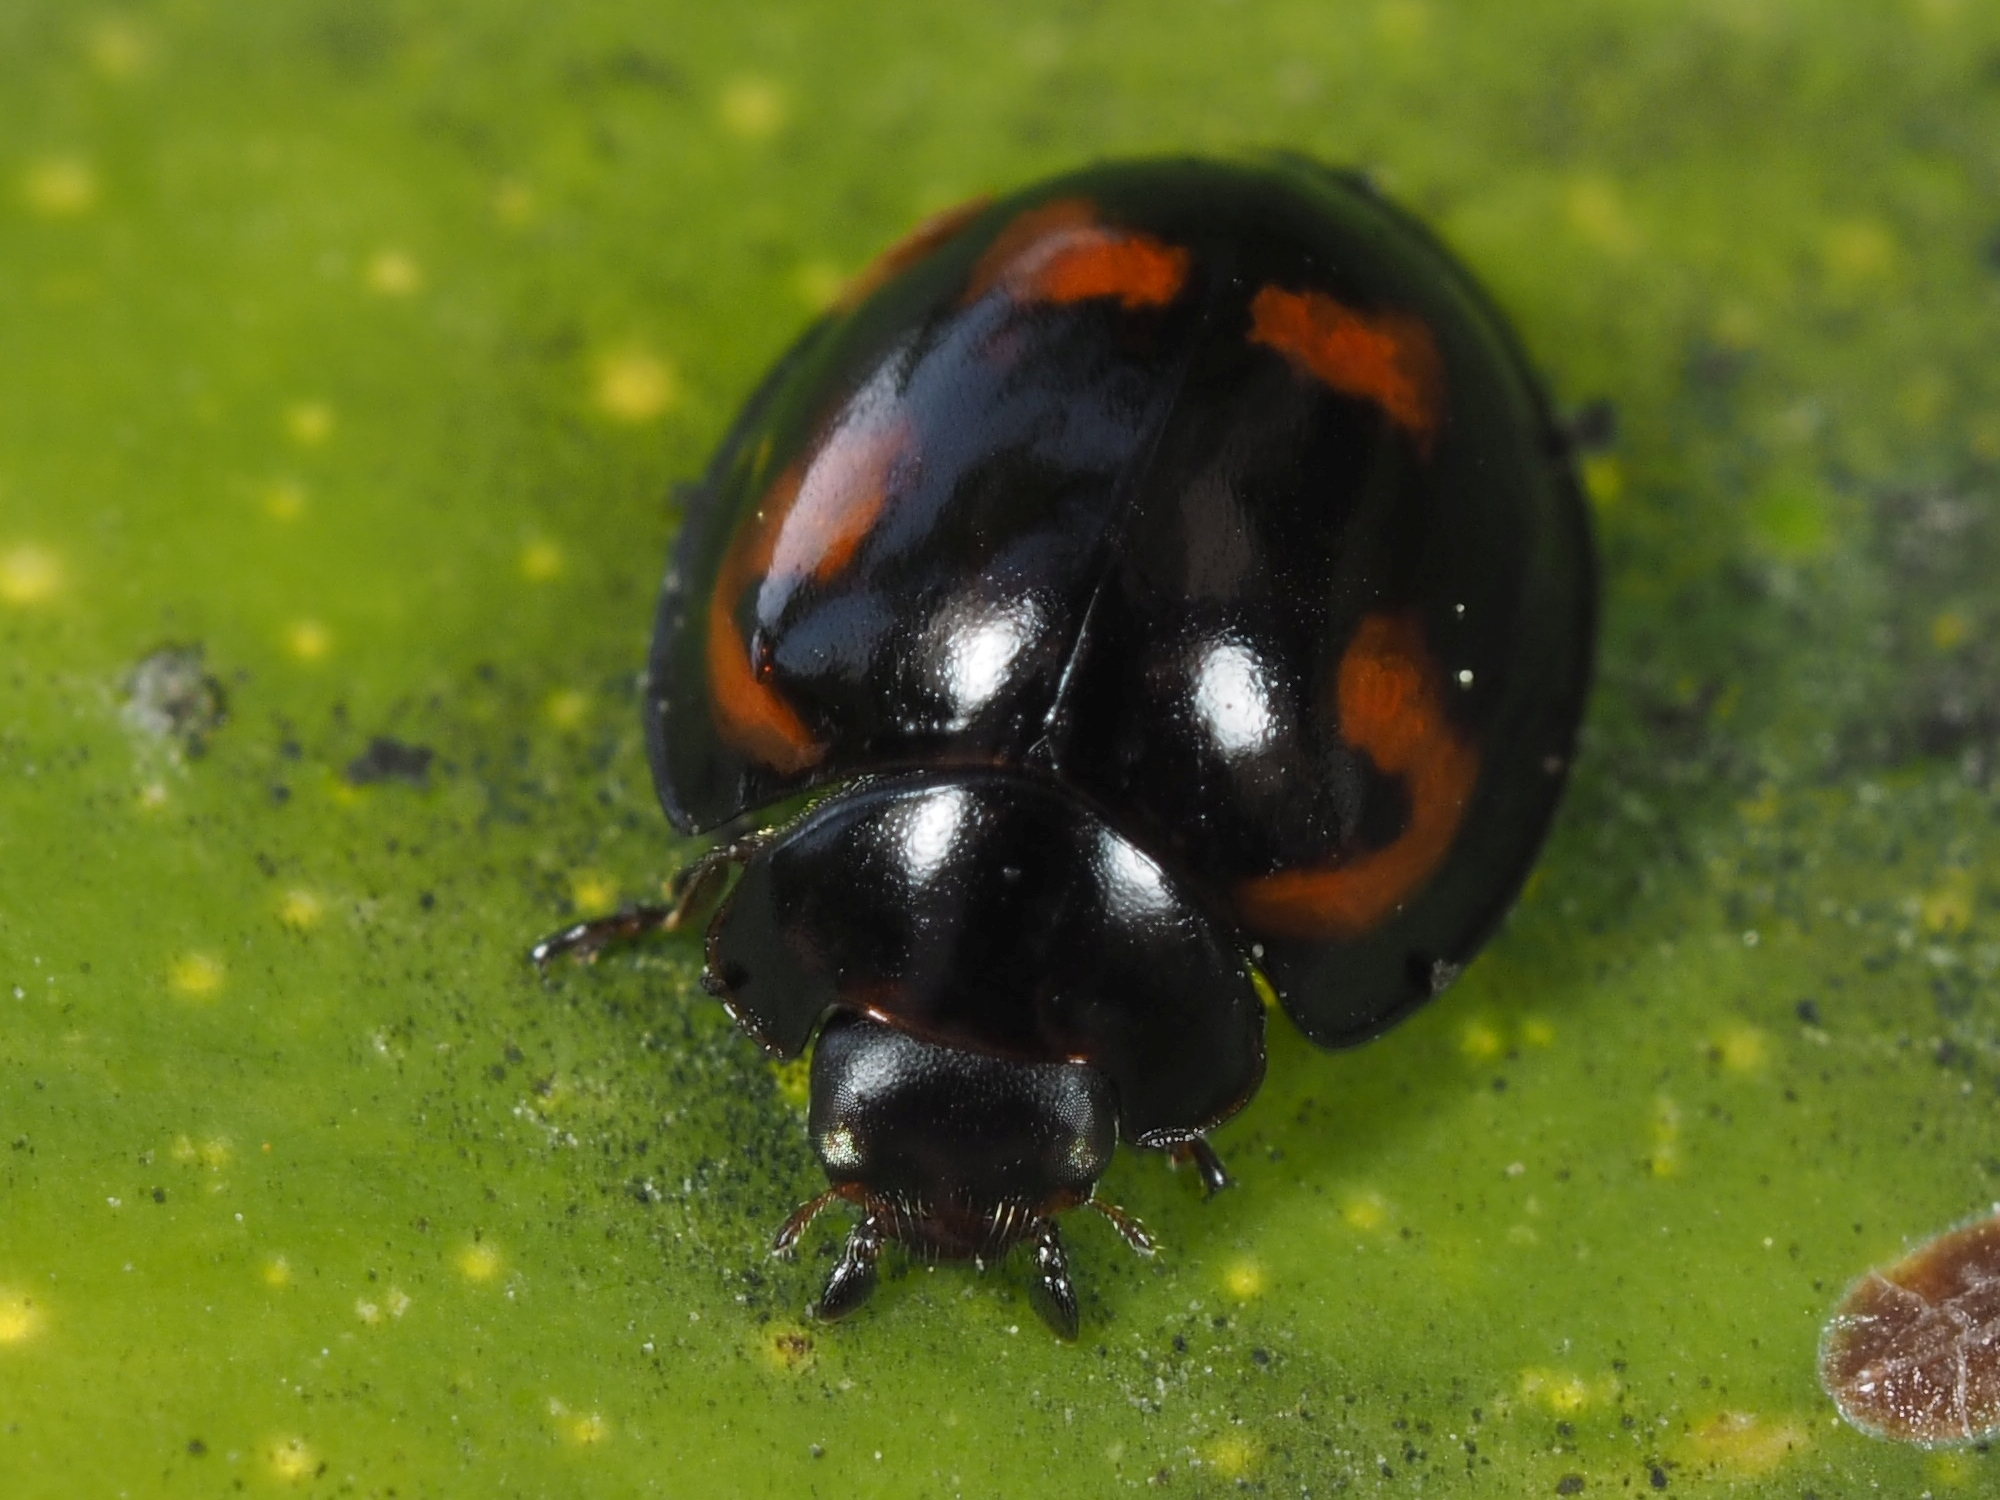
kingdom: Animalia
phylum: Arthropoda
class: Insecta
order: Coleoptera
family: Coccinellidae
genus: Brumus
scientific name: Brumus quadripustulatus
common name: Ladybird beetle
